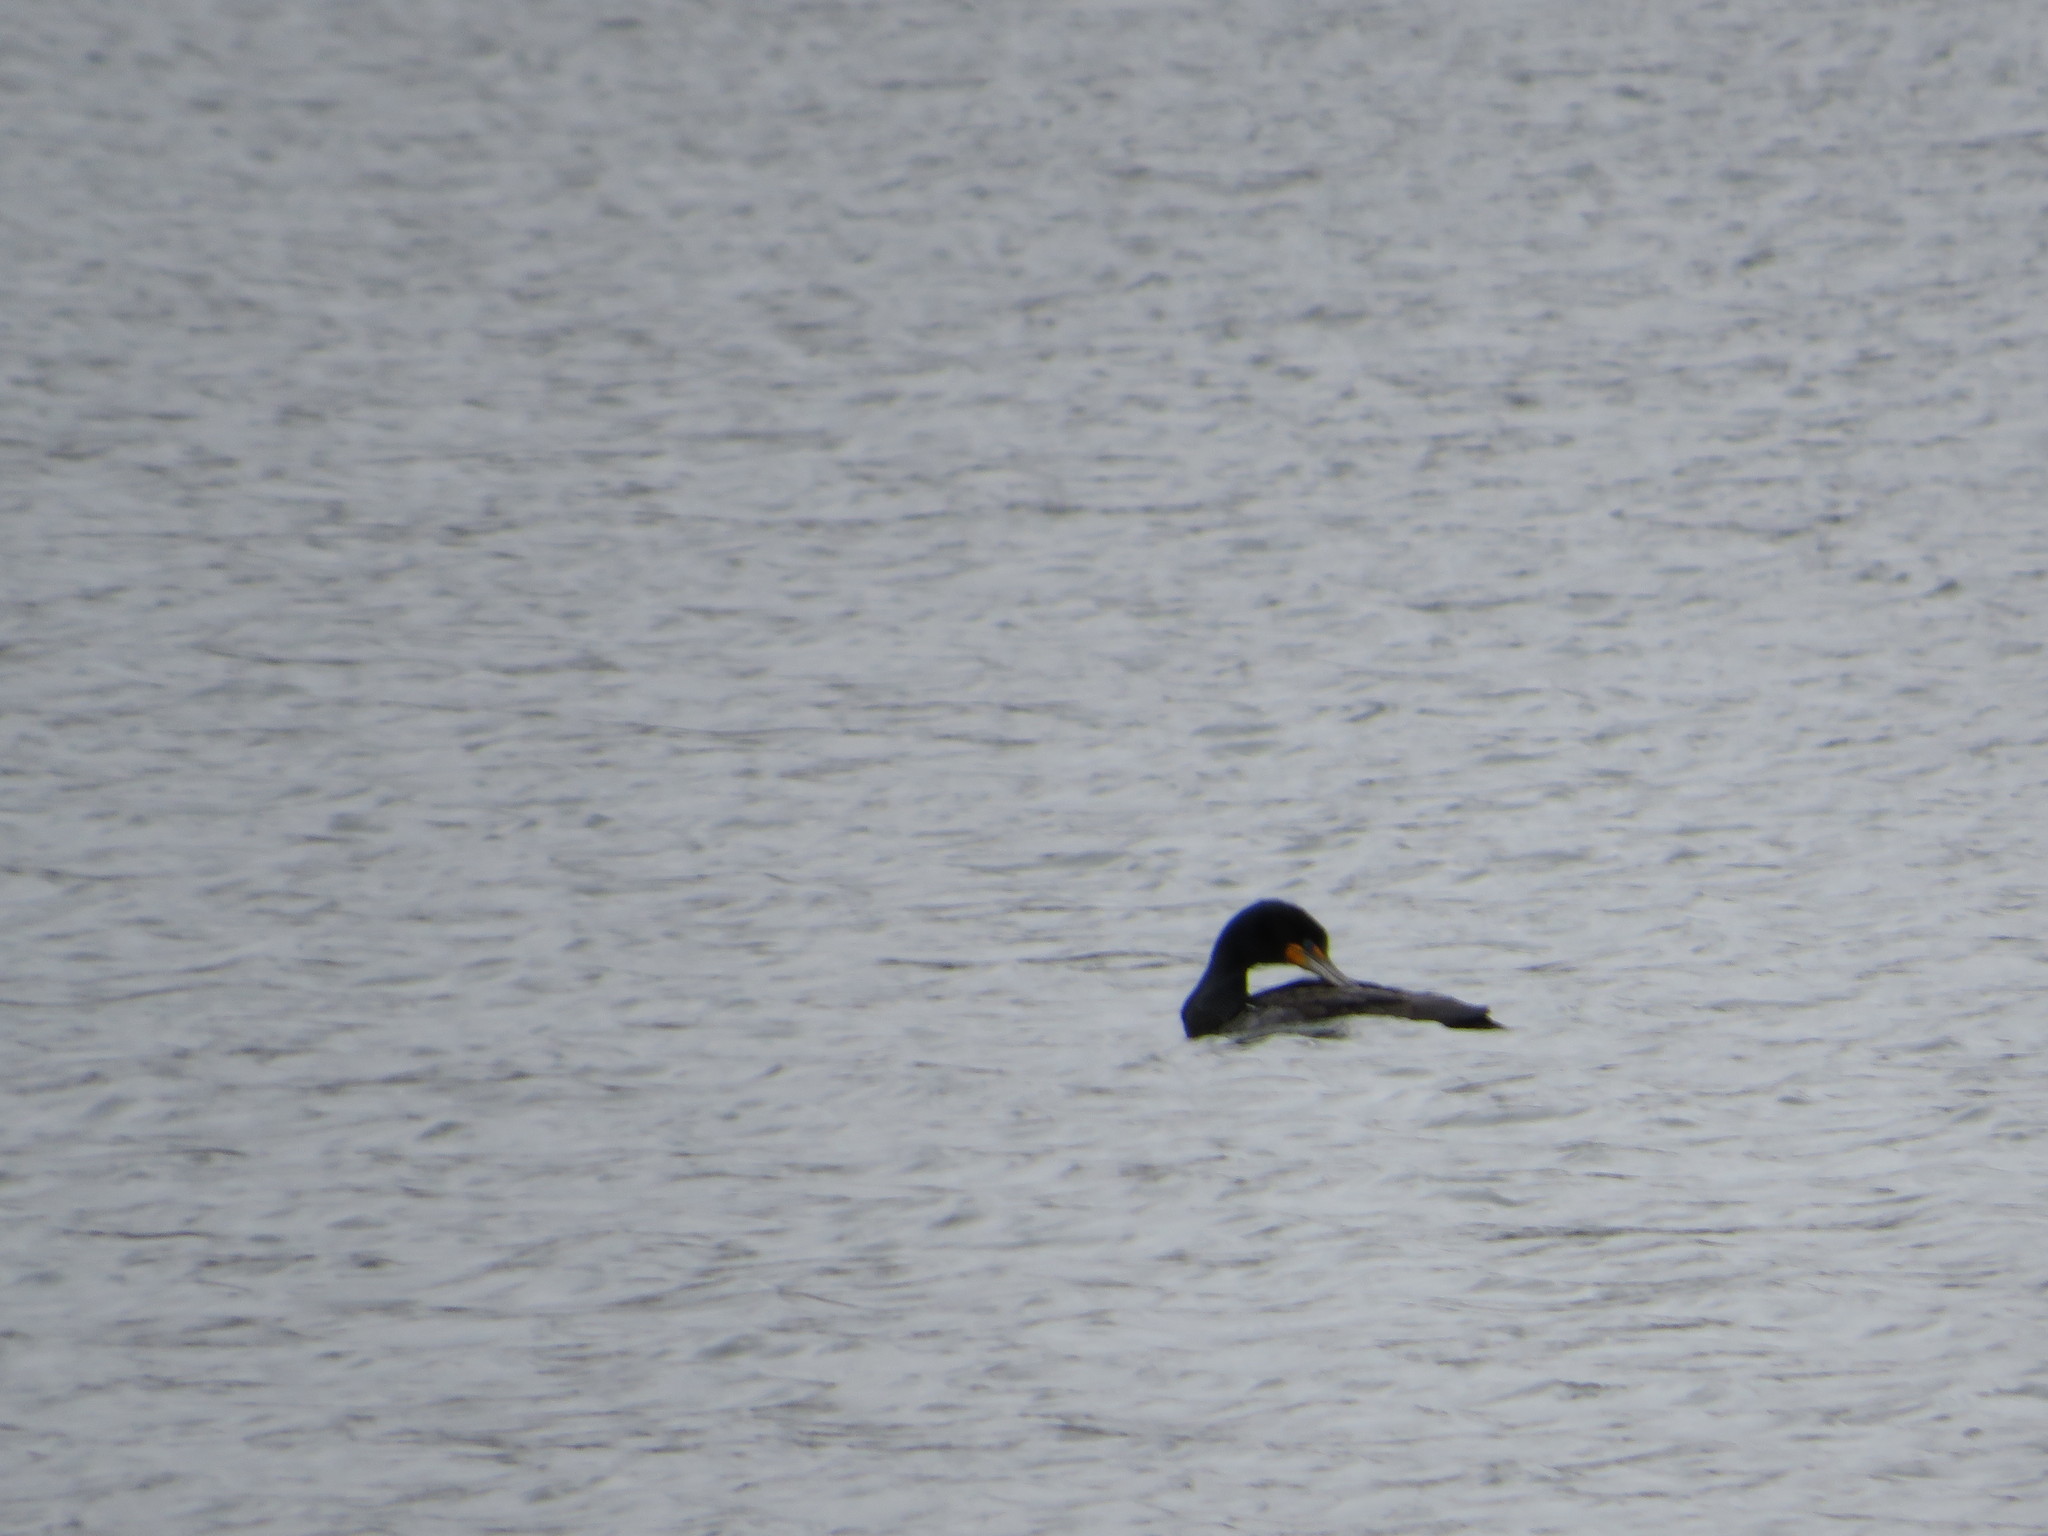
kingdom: Animalia
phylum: Chordata
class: Aves
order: Suliformes
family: Phalacrocoracidae
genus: Phalacrocorax
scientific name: Phalacrocorax auritus
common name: Double-crested cormorant
